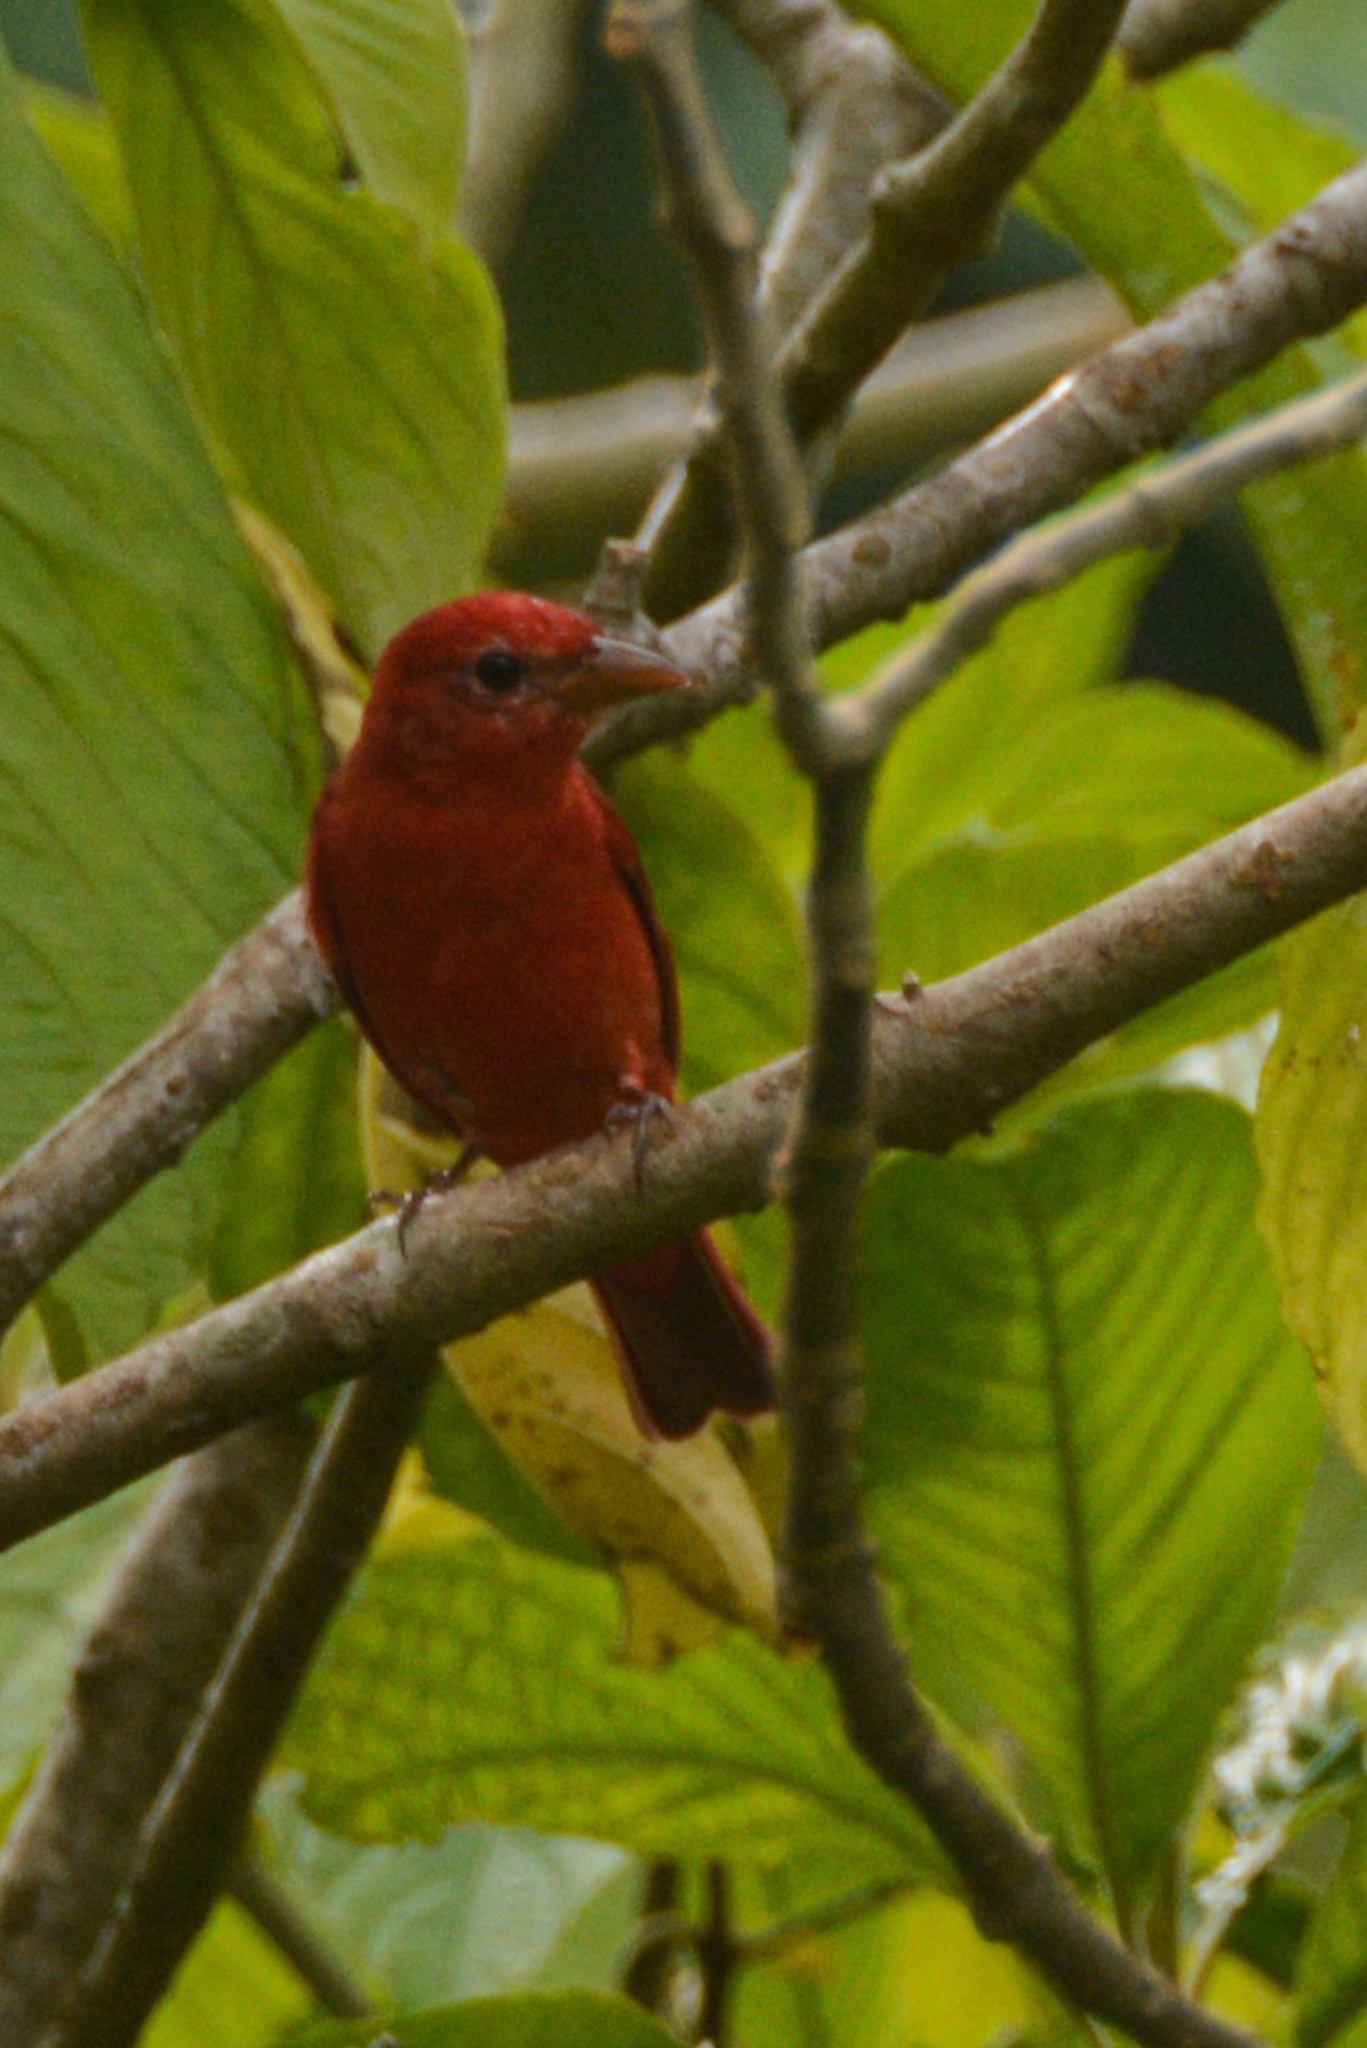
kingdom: Animalia
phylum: Chordata
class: Aves
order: Passeriformes
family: Cardinalidae
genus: Piranga
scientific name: Piranga rubra
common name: Summer tanager
